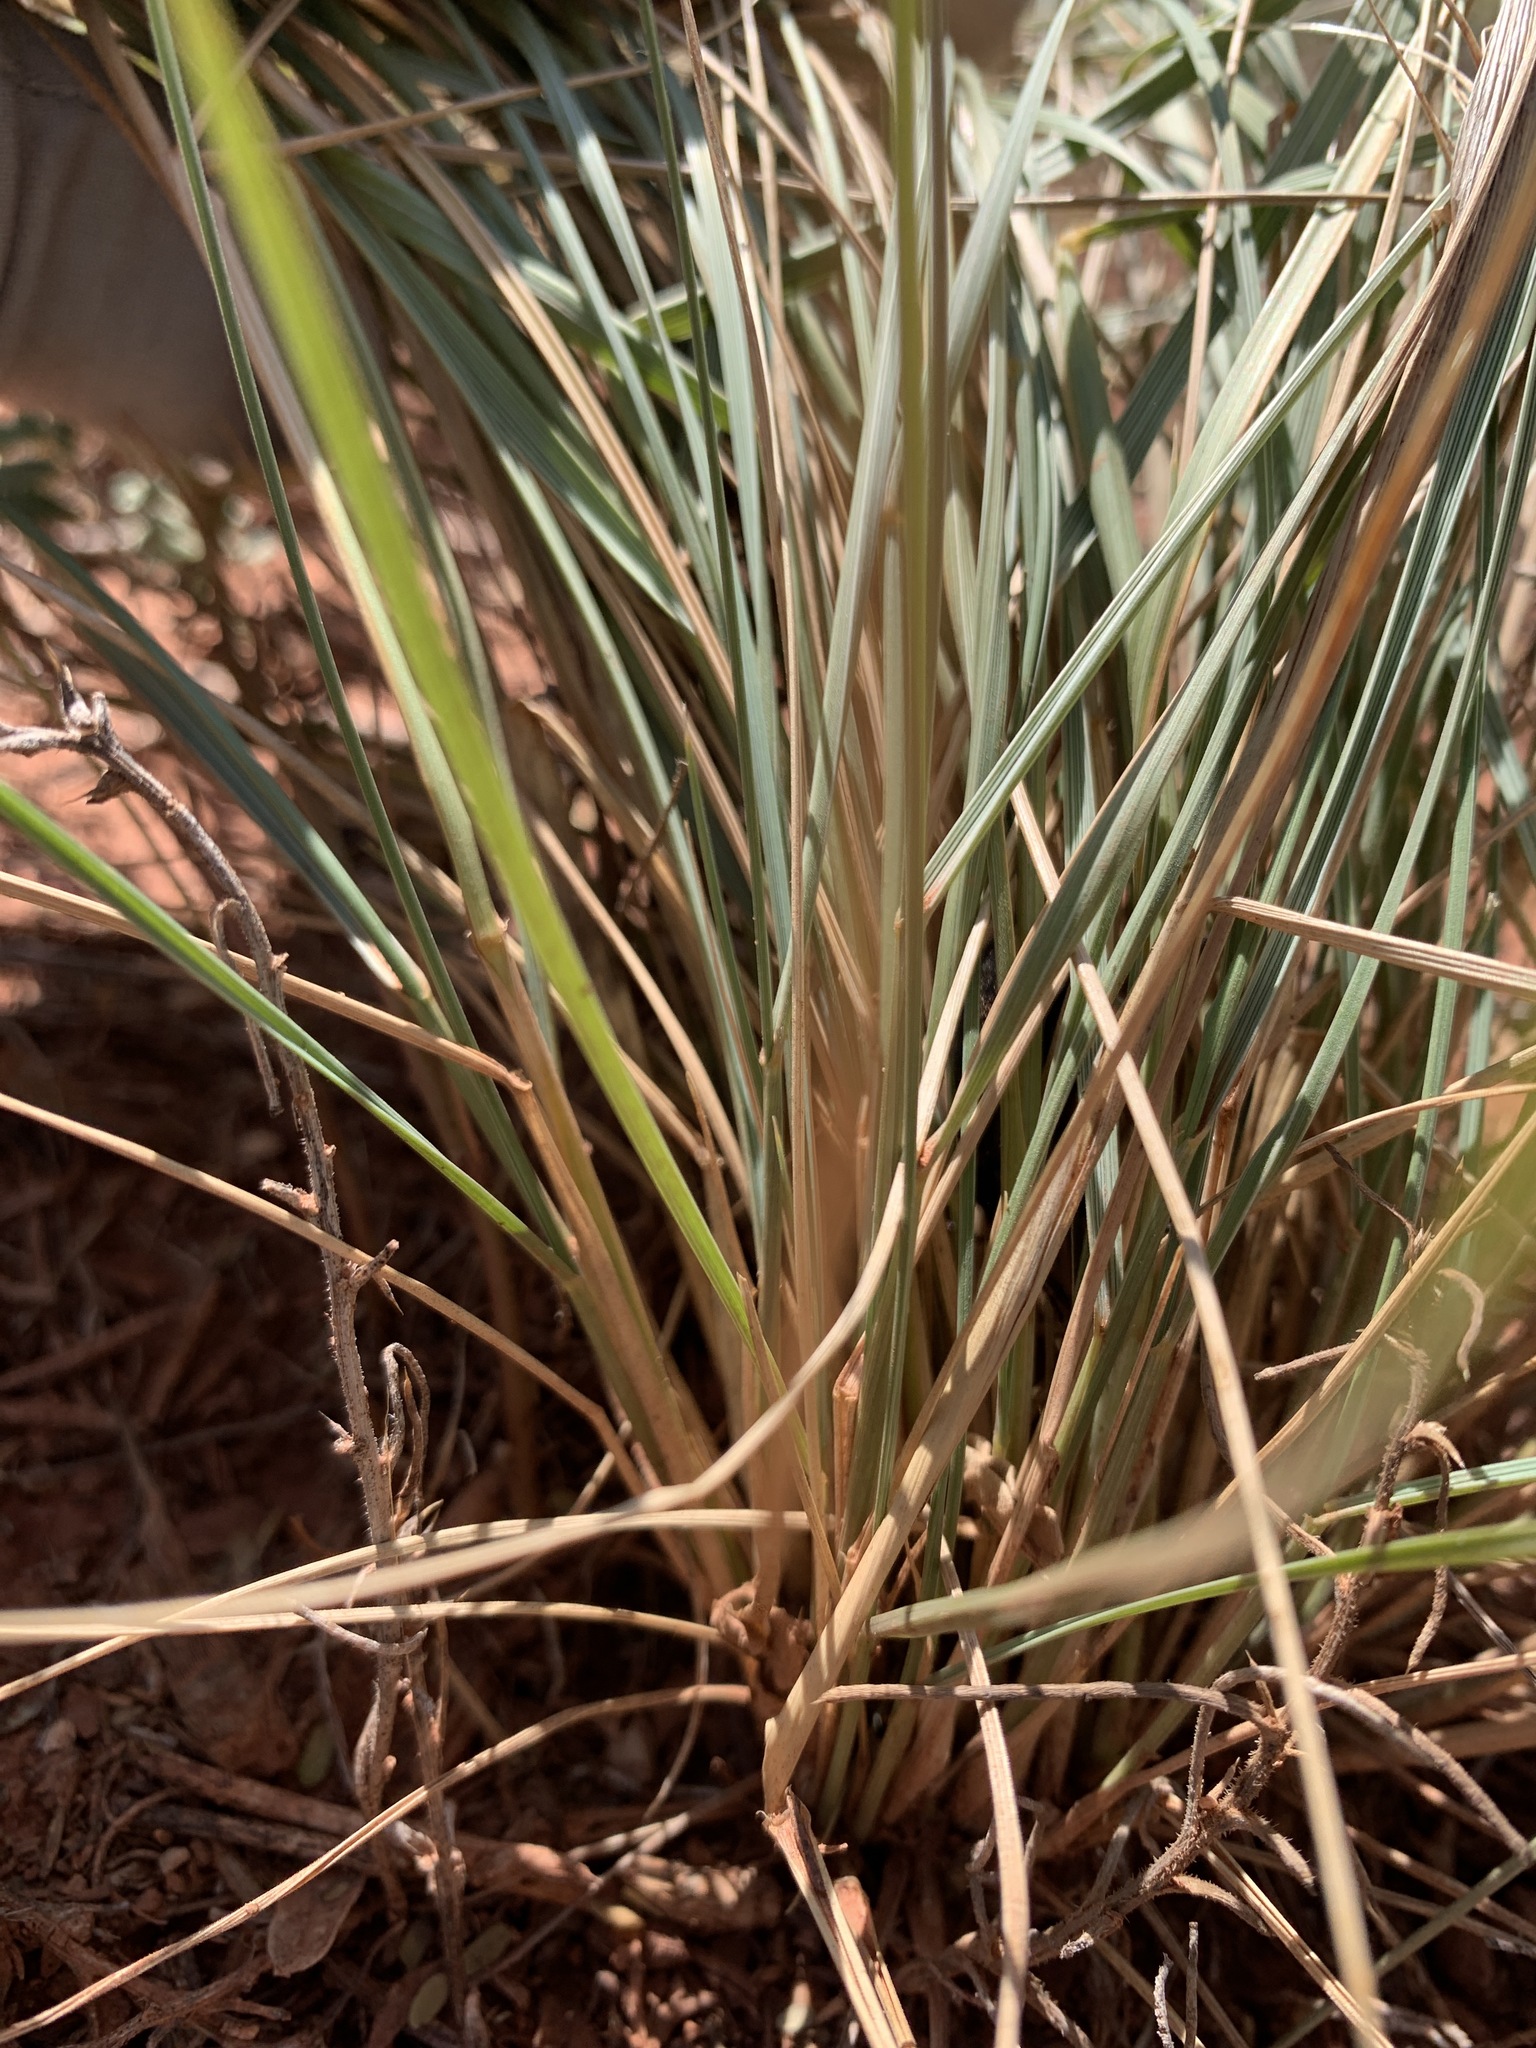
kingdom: Plantae
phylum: Tracheophyta
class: Liliopsida
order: Poales
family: Poaceae
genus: Elymus
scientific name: Elymus elymoides
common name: Bottlebrush squirreltail
